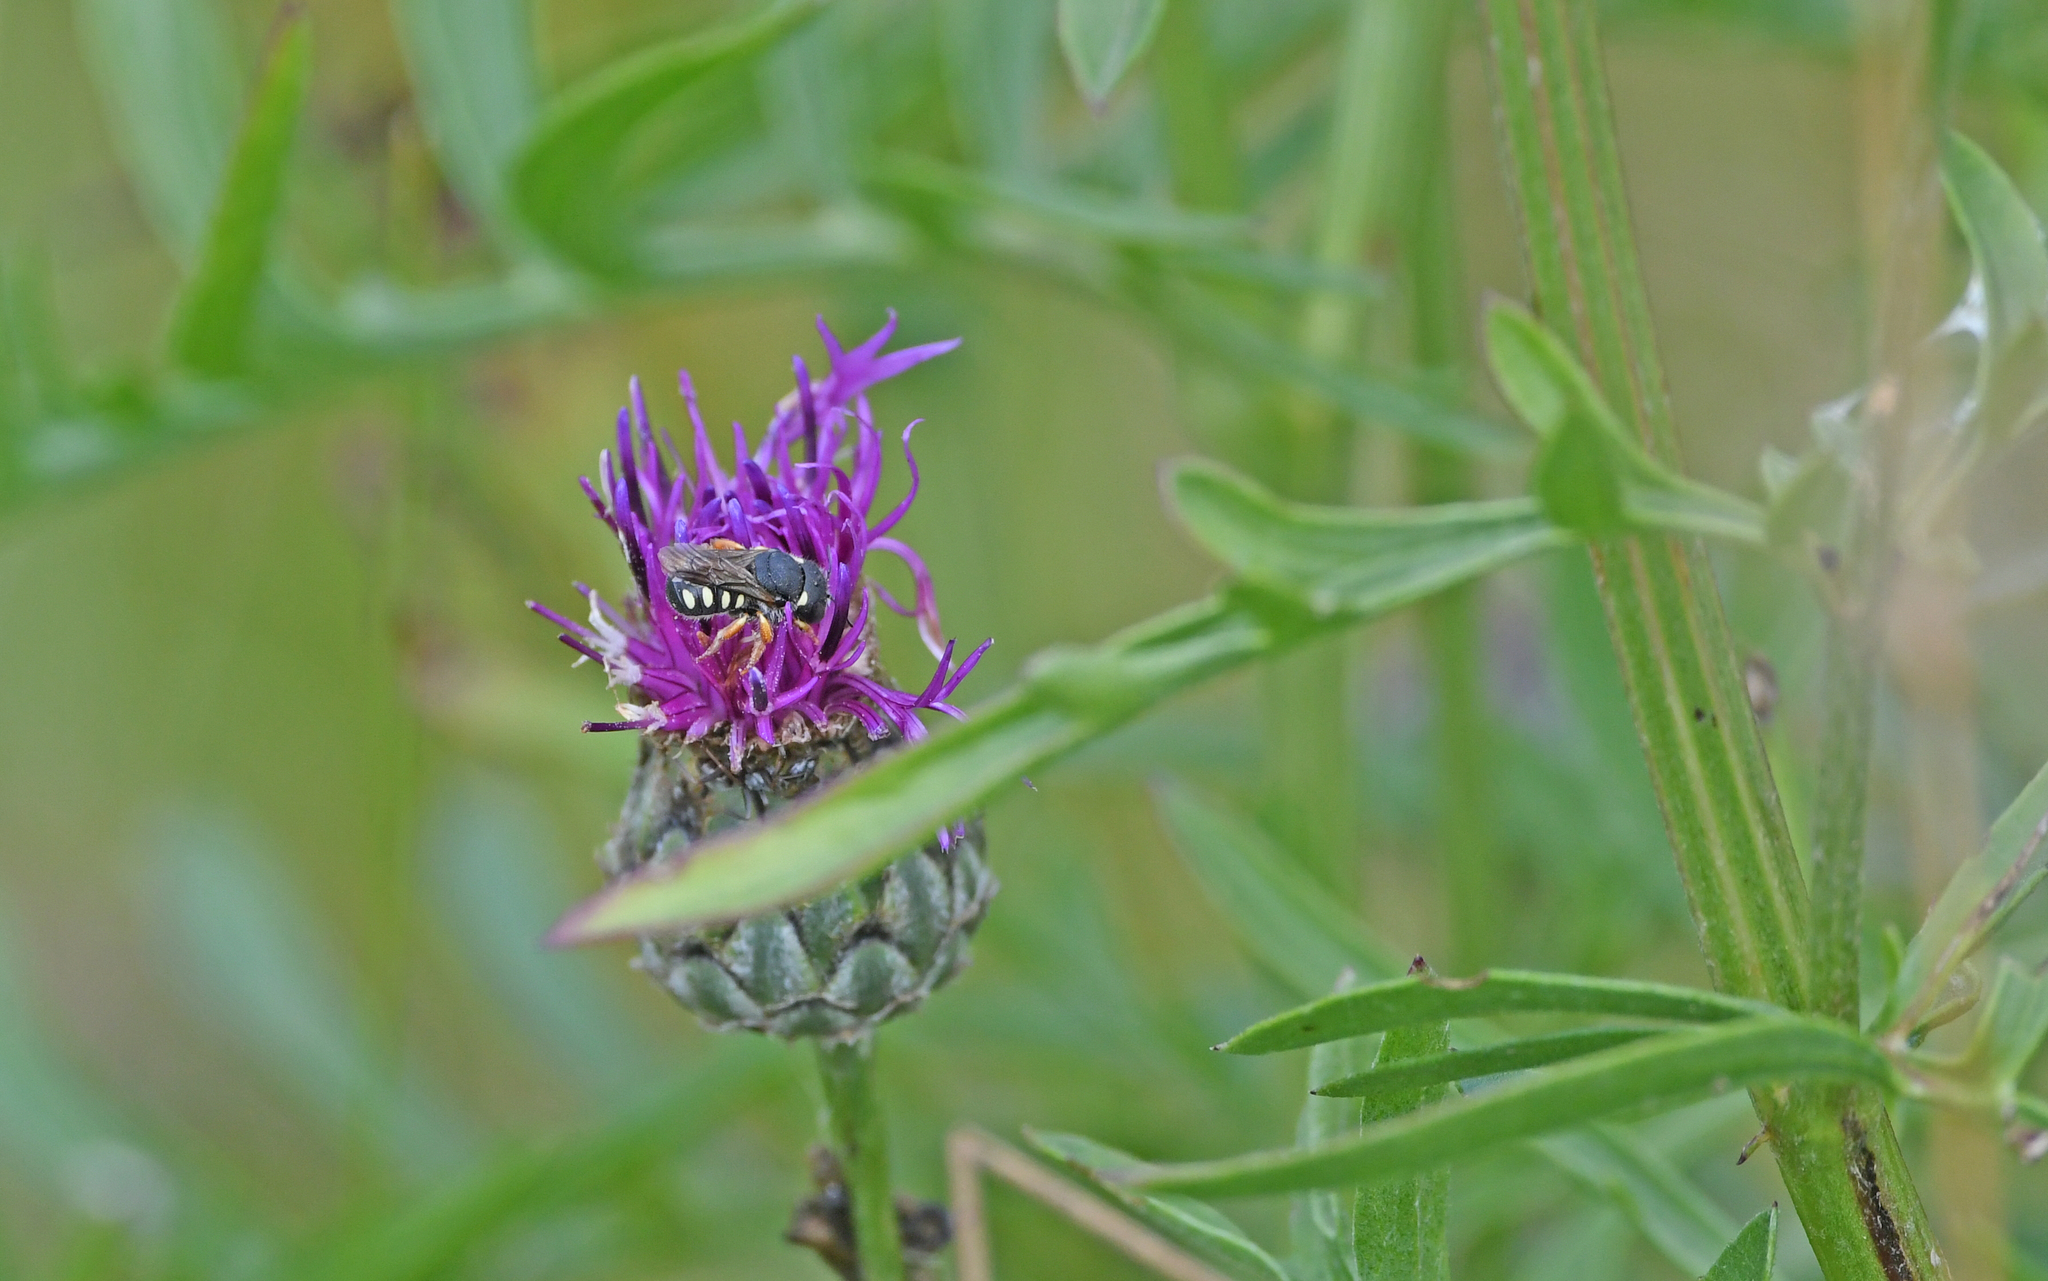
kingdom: Animalia
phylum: Arthropoda
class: Insecta
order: Hymenoptera
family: Megachilidae
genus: Pseudoanthidium
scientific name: Pseudoanthidium nanum
